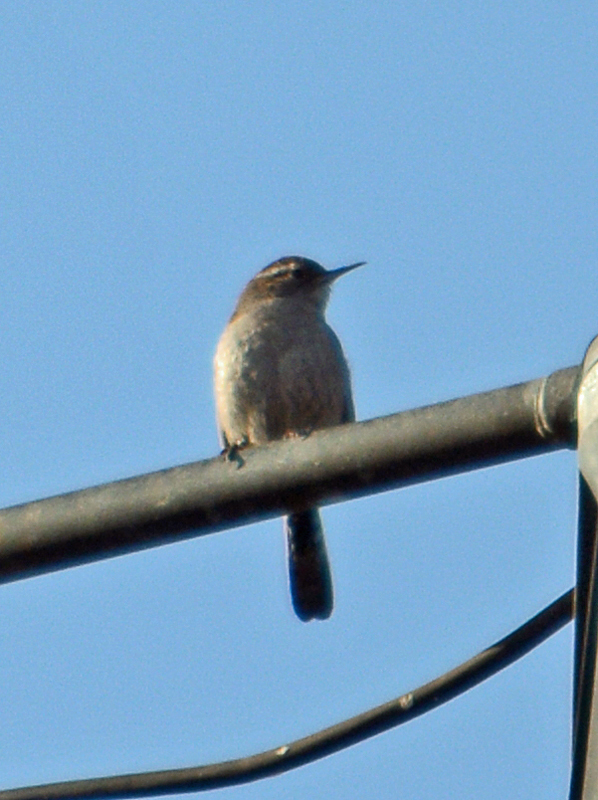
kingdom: Animalia
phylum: Chordata
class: Aves
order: Passeriformes
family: Troglodytidae
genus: Thryomanes
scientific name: Thryomanes bewickii
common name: Bewick's wren
